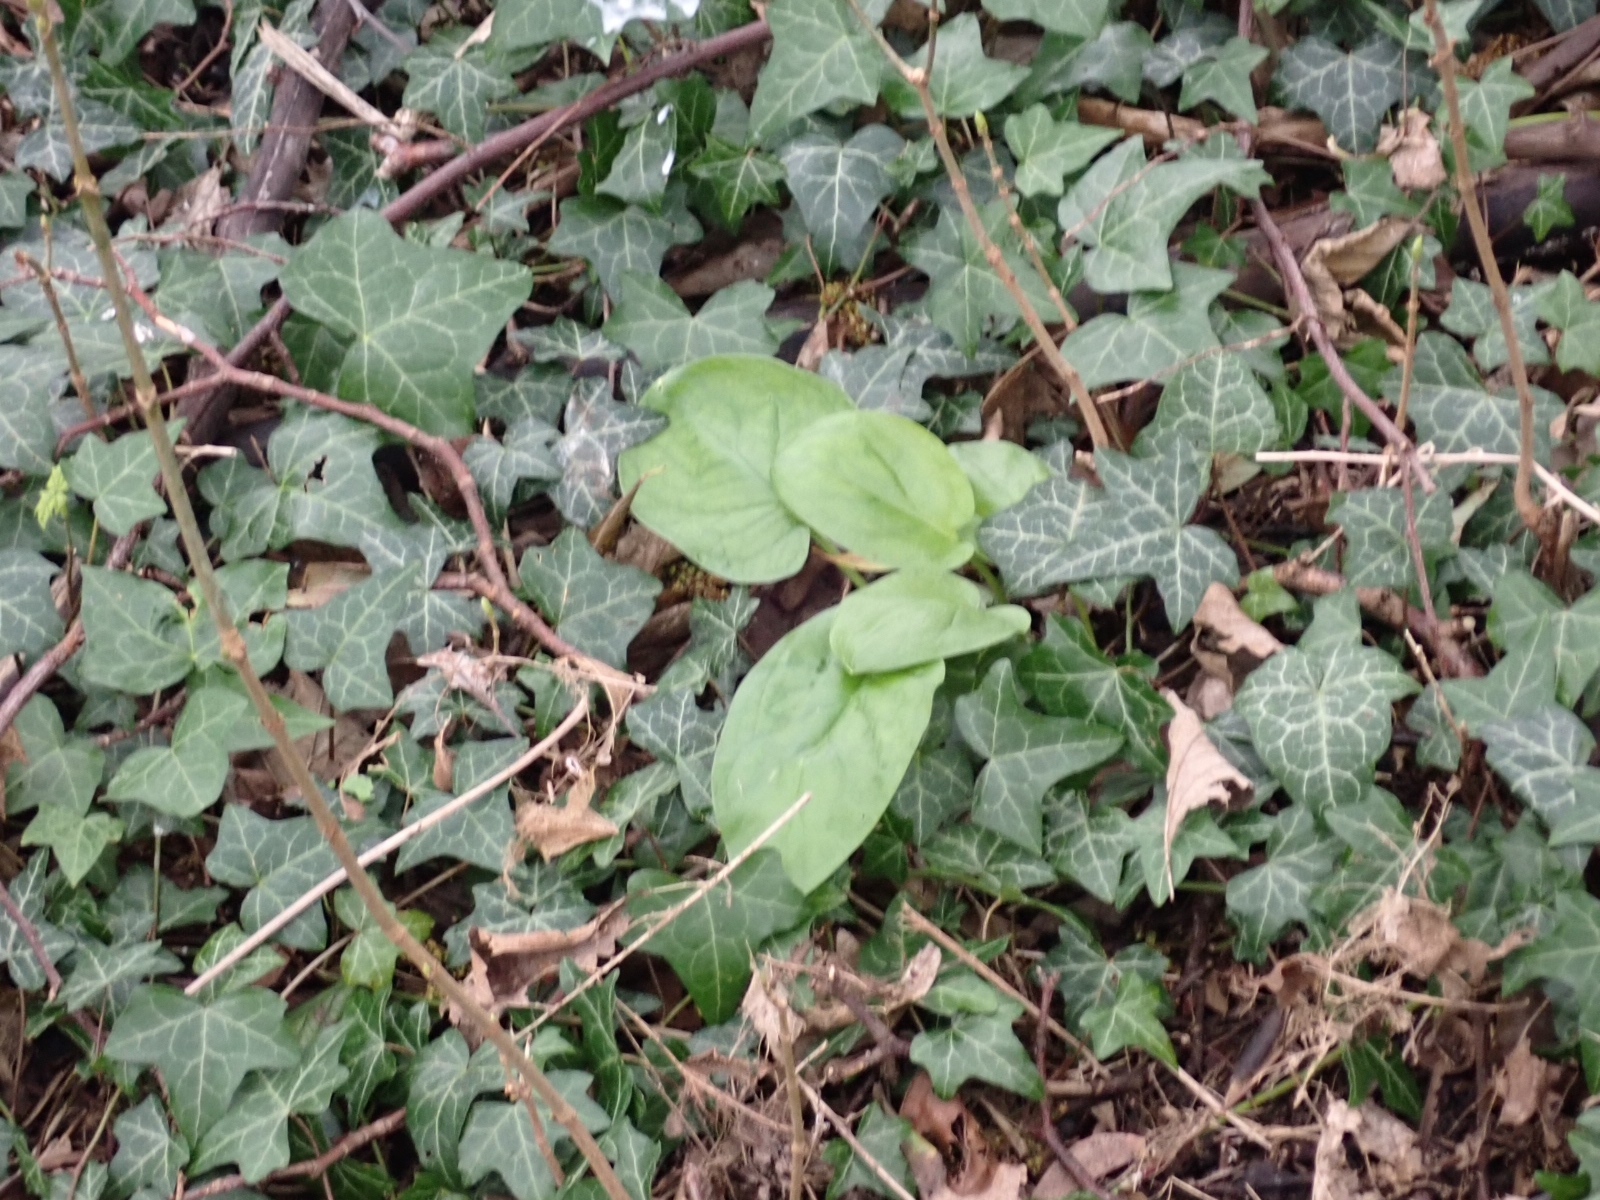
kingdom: Plantae
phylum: Tracheophyta
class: Liliopsida
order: Alismatales
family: Araceae
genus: Arum
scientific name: Arum maculatum
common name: Lords-and-ladies
